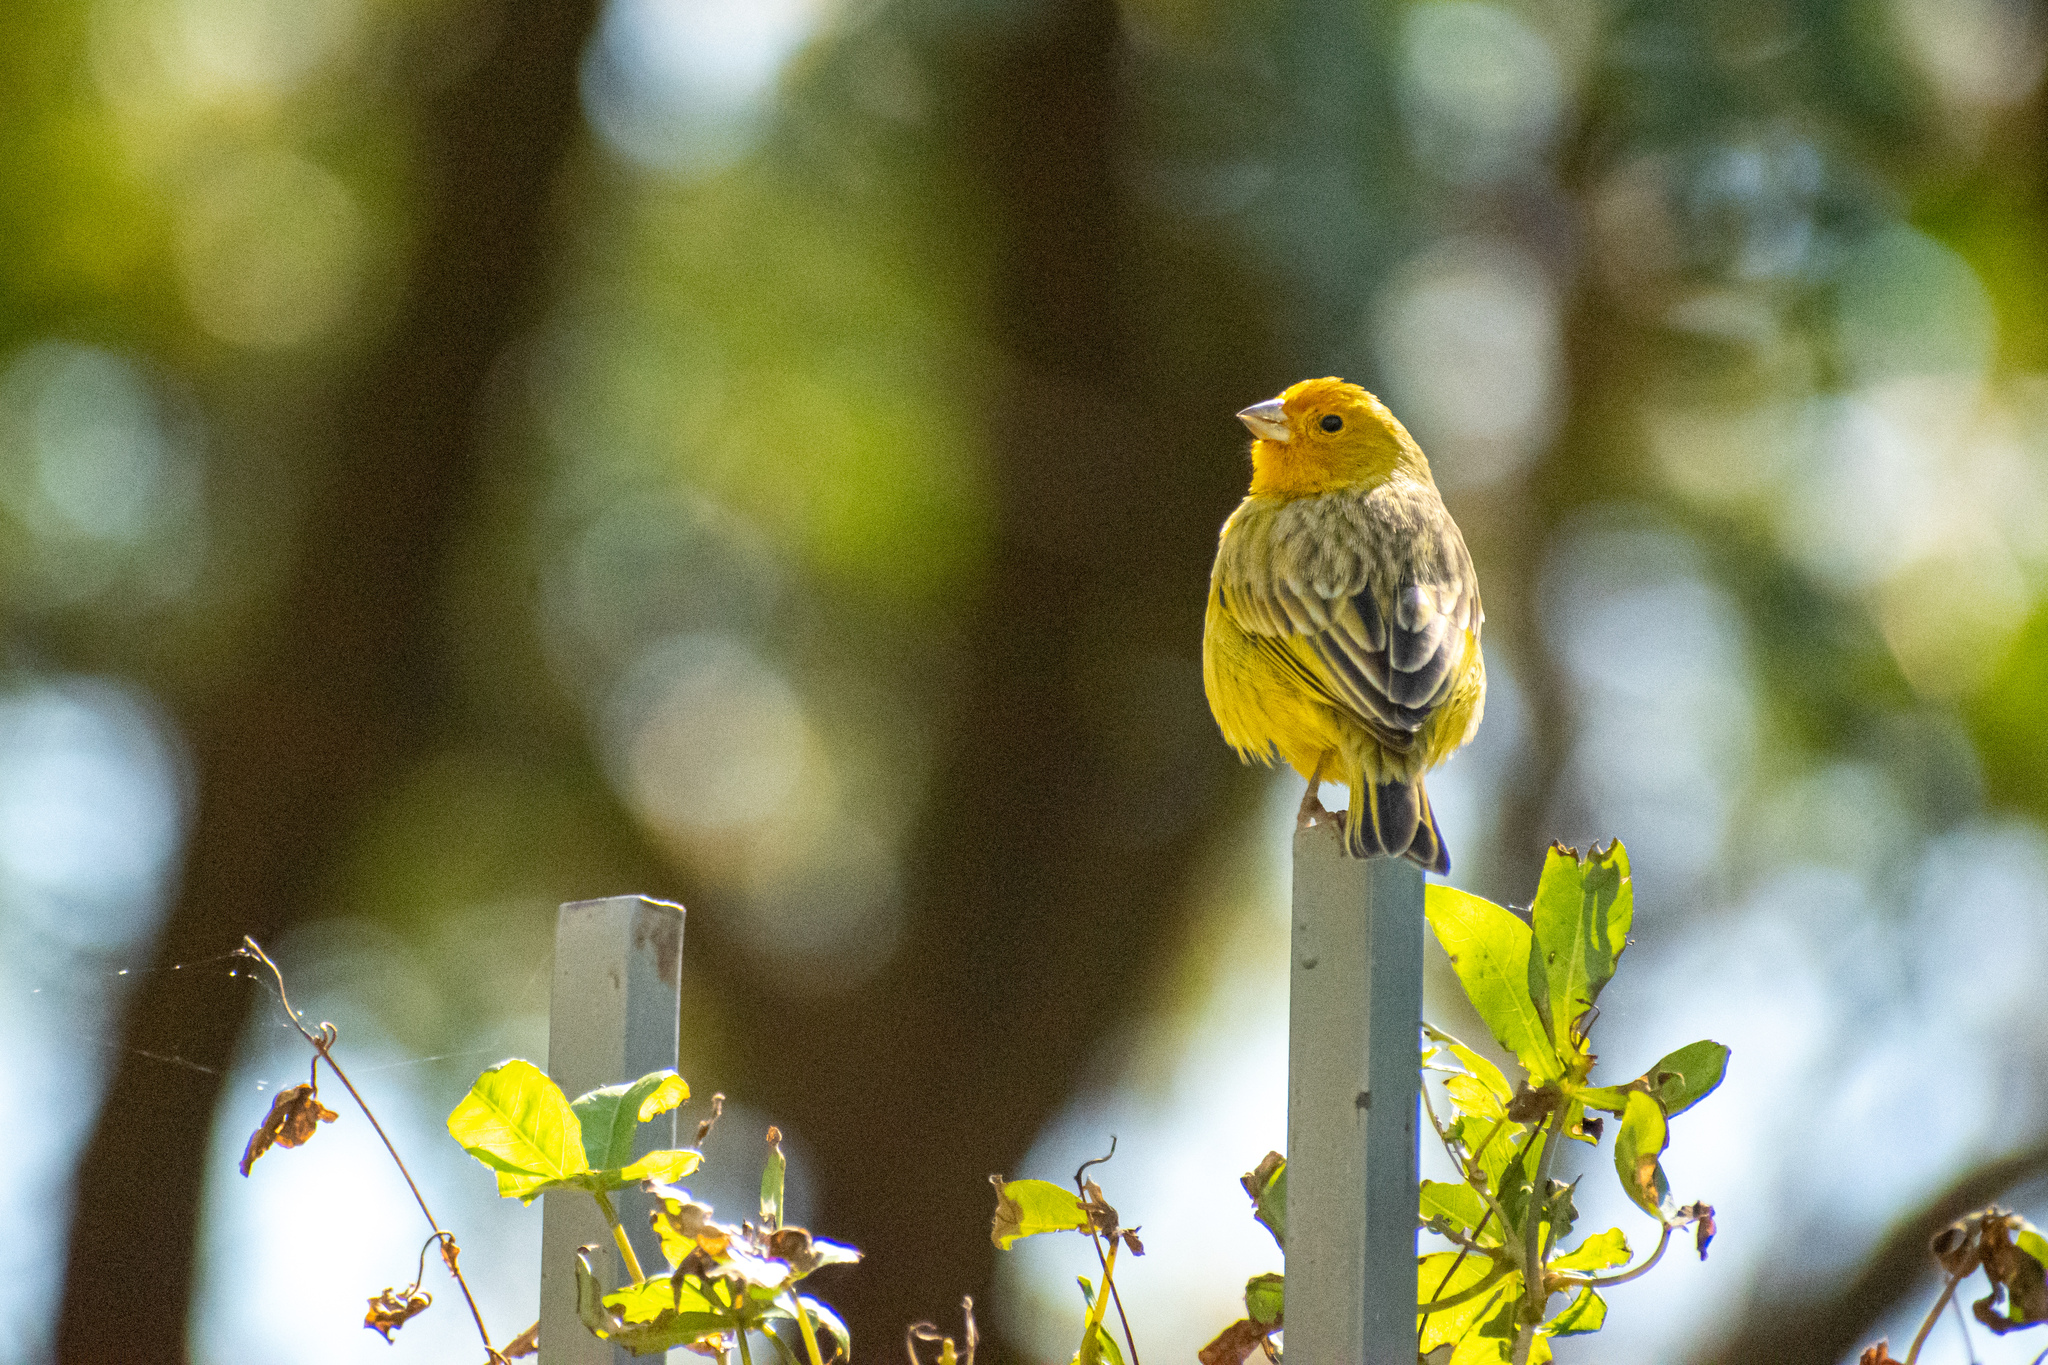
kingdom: Animalia
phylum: Chordata
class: Aves
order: Passeriformes
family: Thraupidae
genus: Sicalis
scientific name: Sicalis flaveola
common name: Saffron finch
